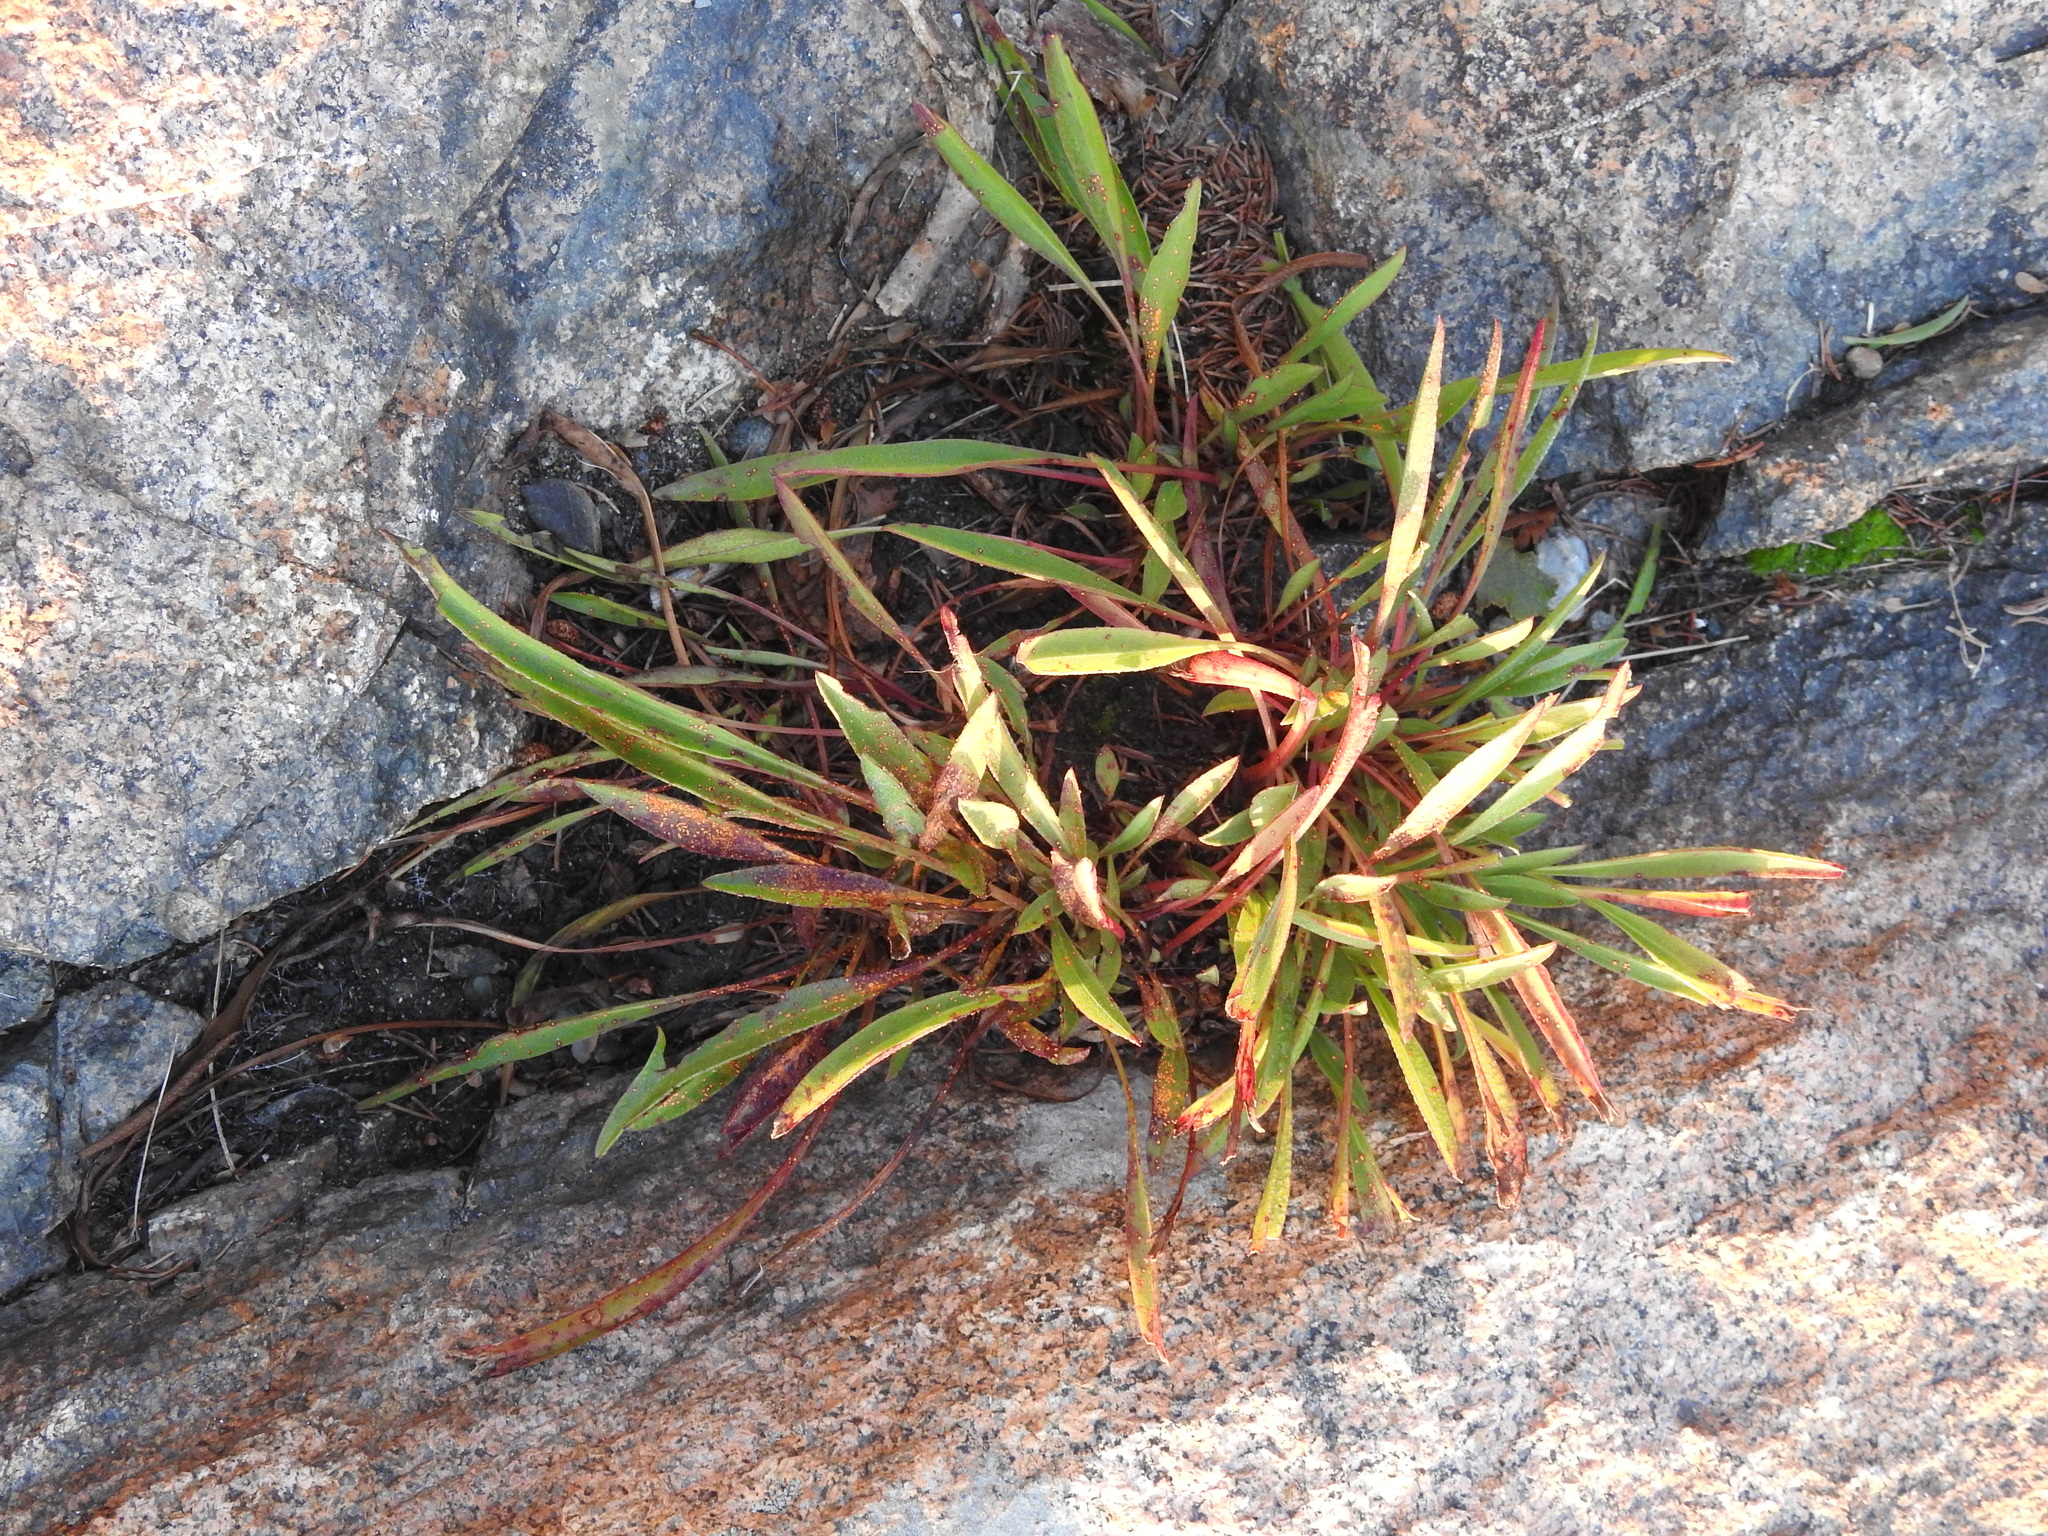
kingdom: Plantae
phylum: Tracheophyta
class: Magnoliopsida
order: Asterales
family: Asteraceae
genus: Solidago
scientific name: Solidago sempervirens
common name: Salt-marsh goldenrod
